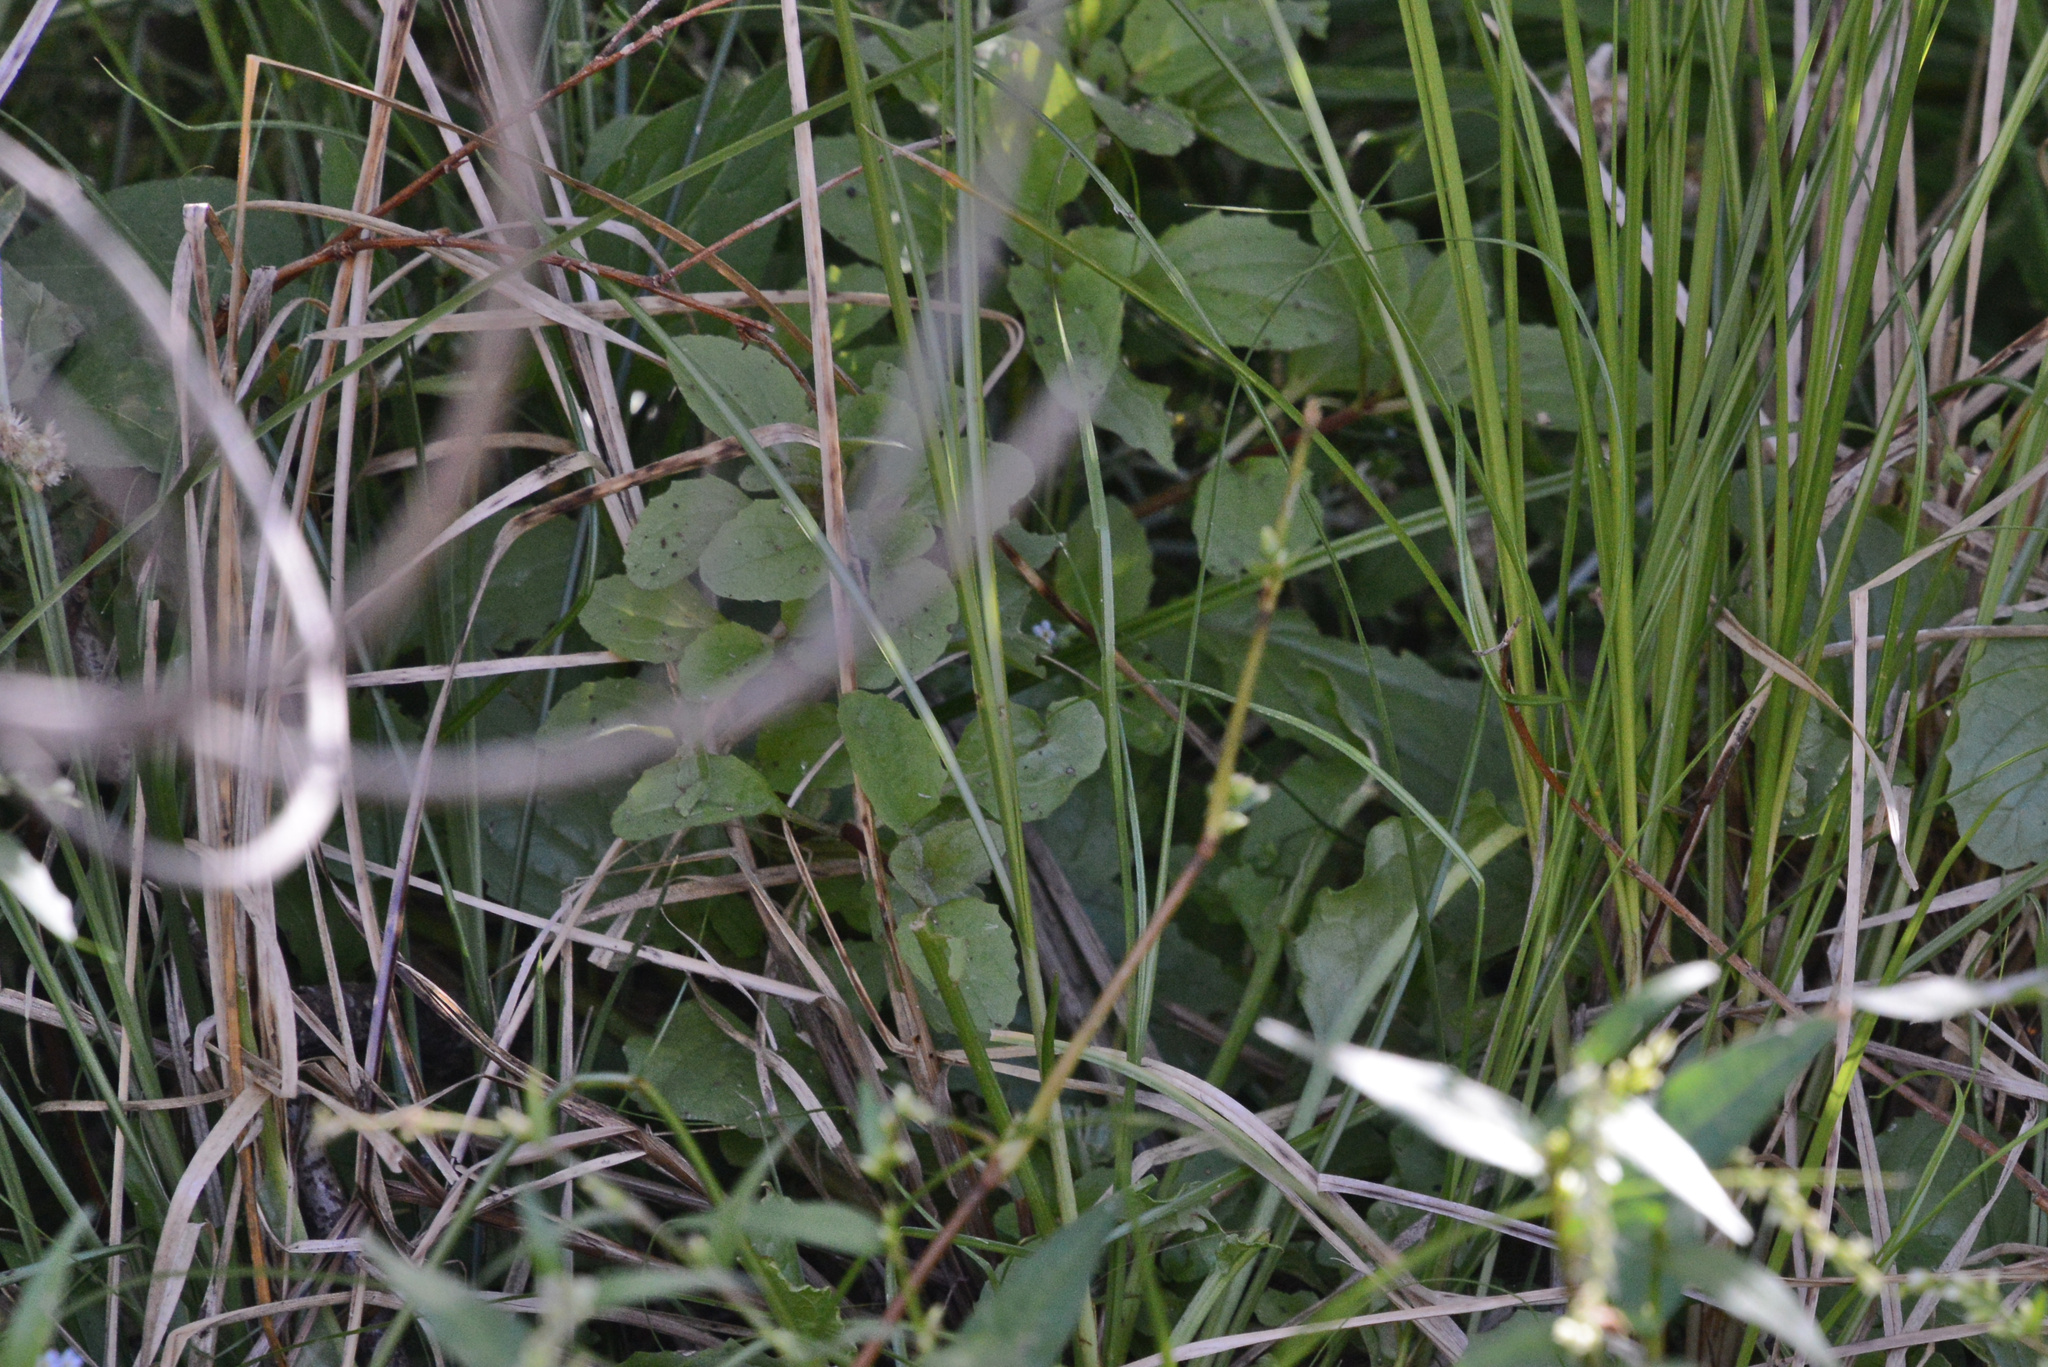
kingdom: Plantae
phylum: Tracheophyta
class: Magnoliopsida
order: Lamiales
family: Phrymaceae
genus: Erythranthe
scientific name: Erythranthe guttata
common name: Monkeyflower
